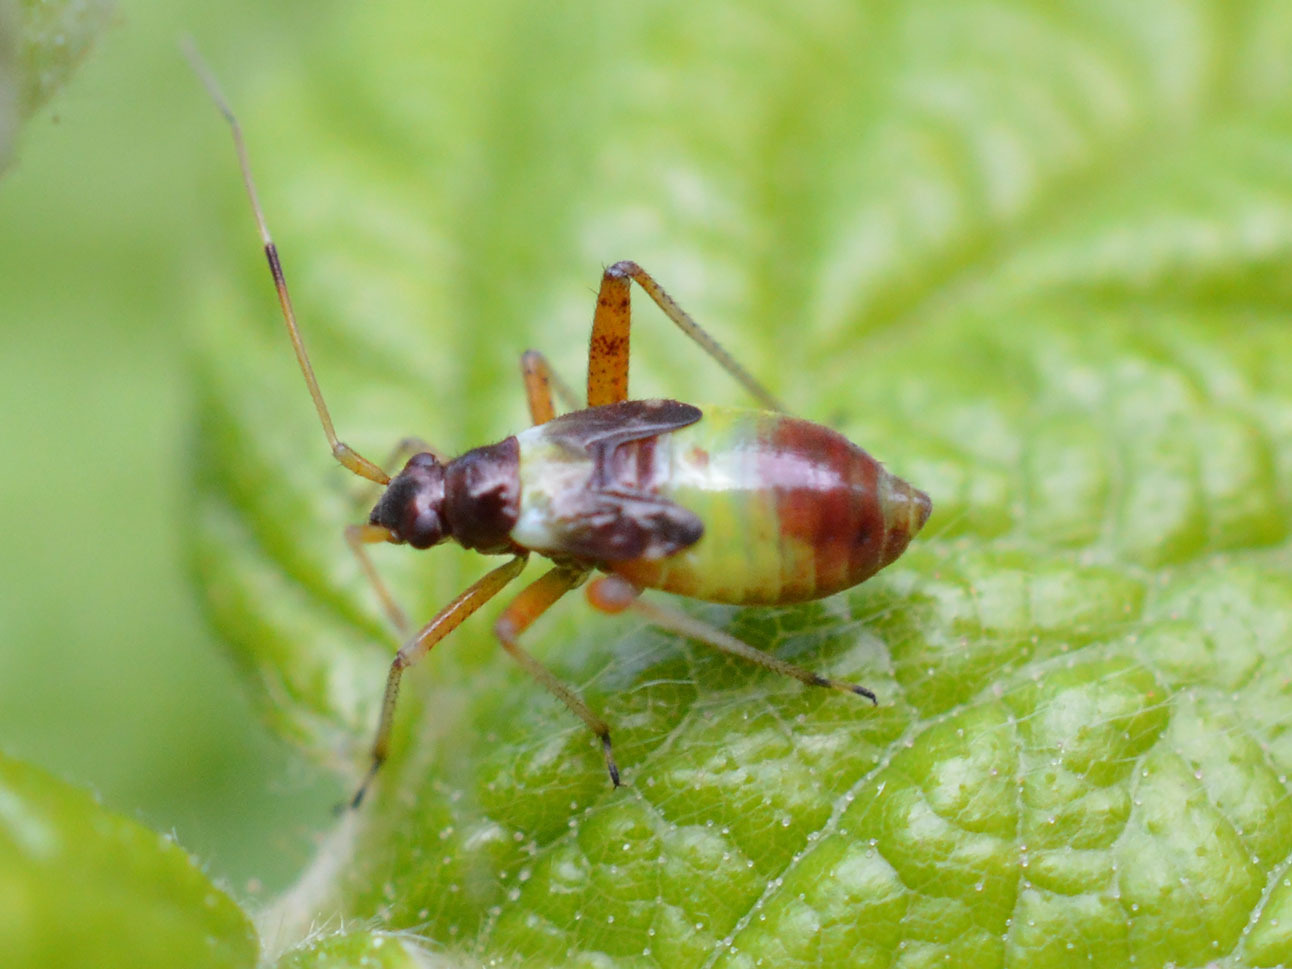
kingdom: Animalia
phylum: Arthropoda
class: Insecta
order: Hemiptera
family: Miridae
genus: Closterotomus
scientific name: Closterotomus fulvomaculatus
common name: Spotted plant bug
